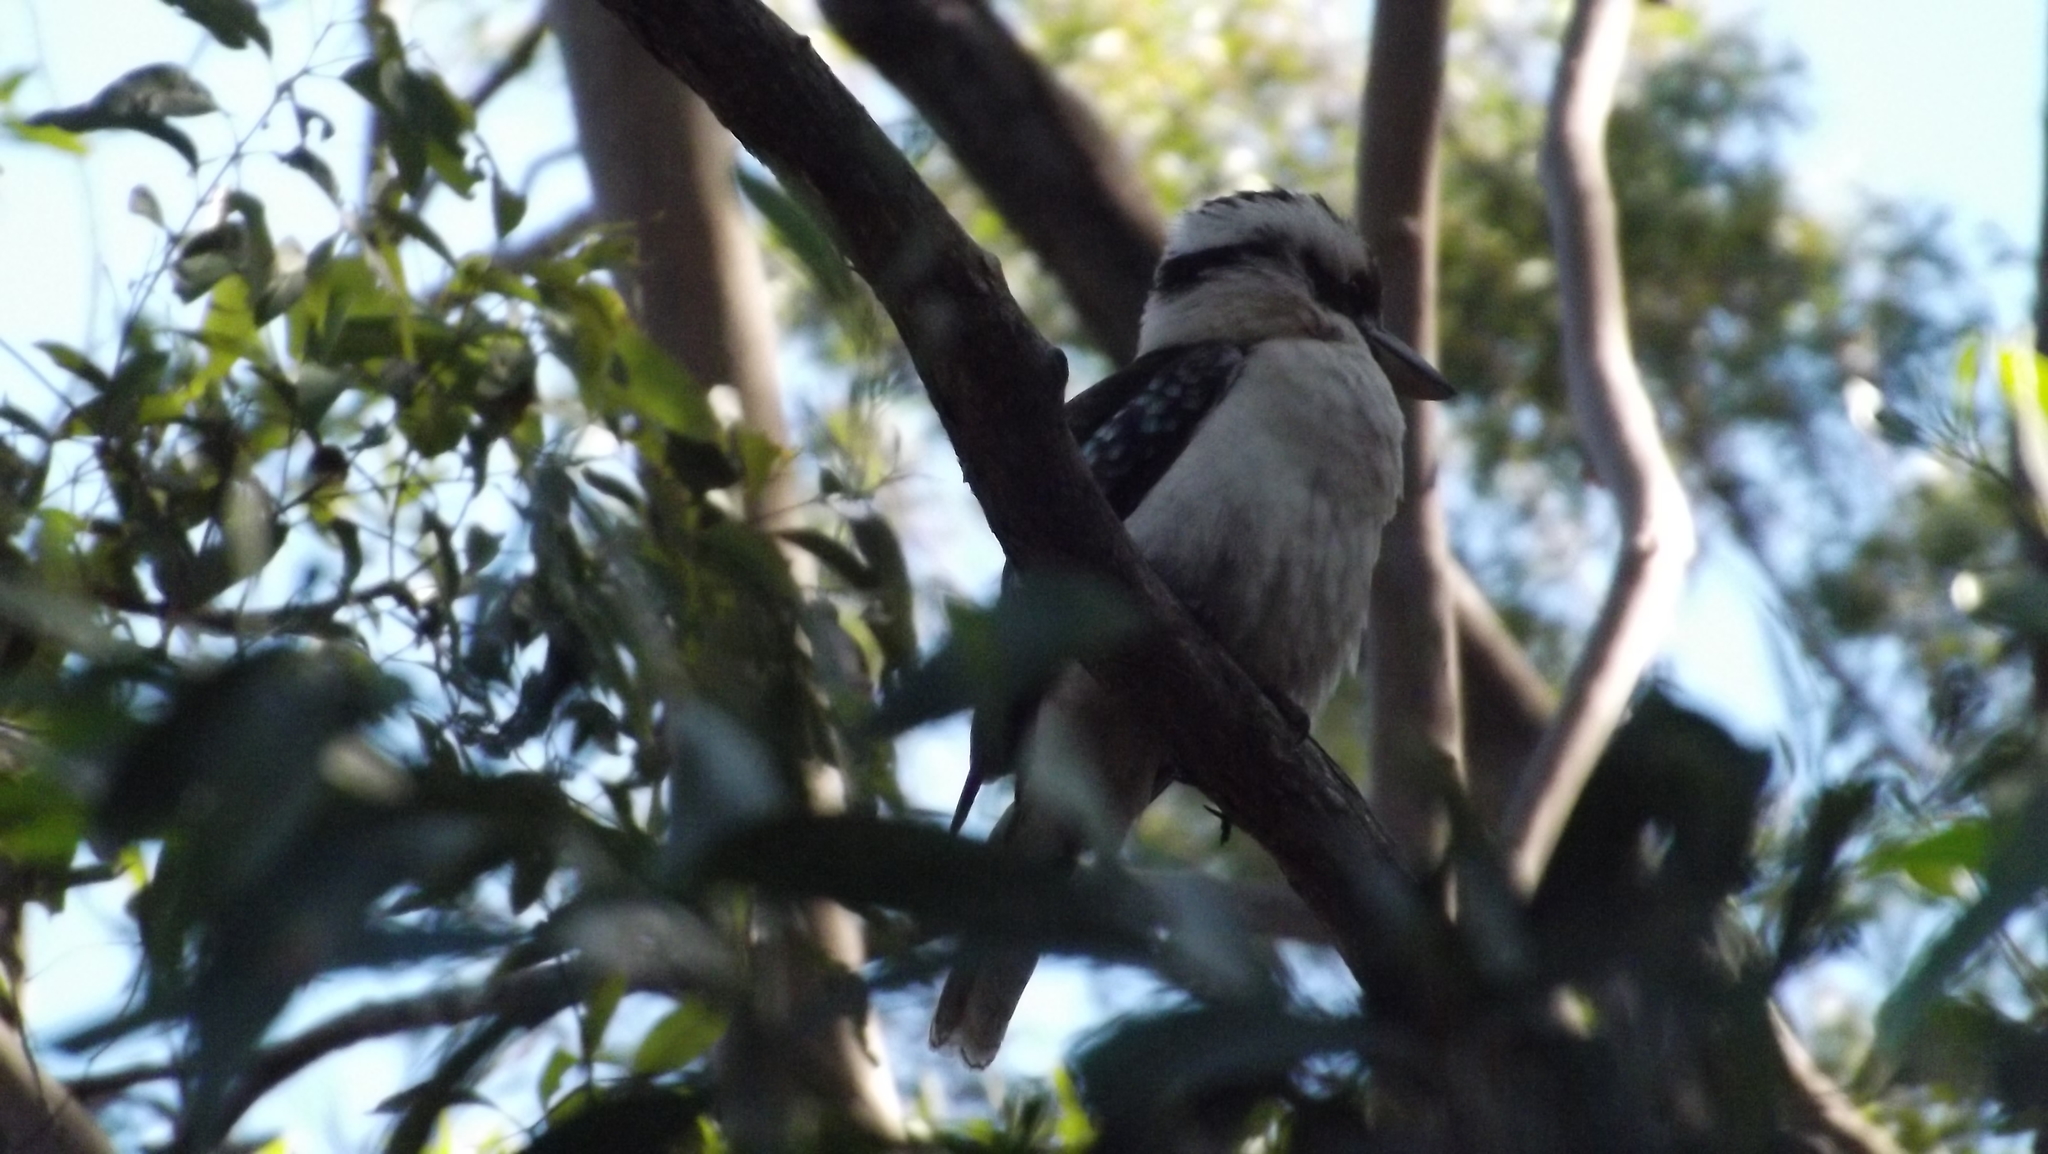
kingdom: Animalia
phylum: Chordata
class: Aves
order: Coraciiformes
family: Alcedinidae
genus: Dacelo
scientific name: Dacelo novaeguineae
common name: Laughing kookaburra
